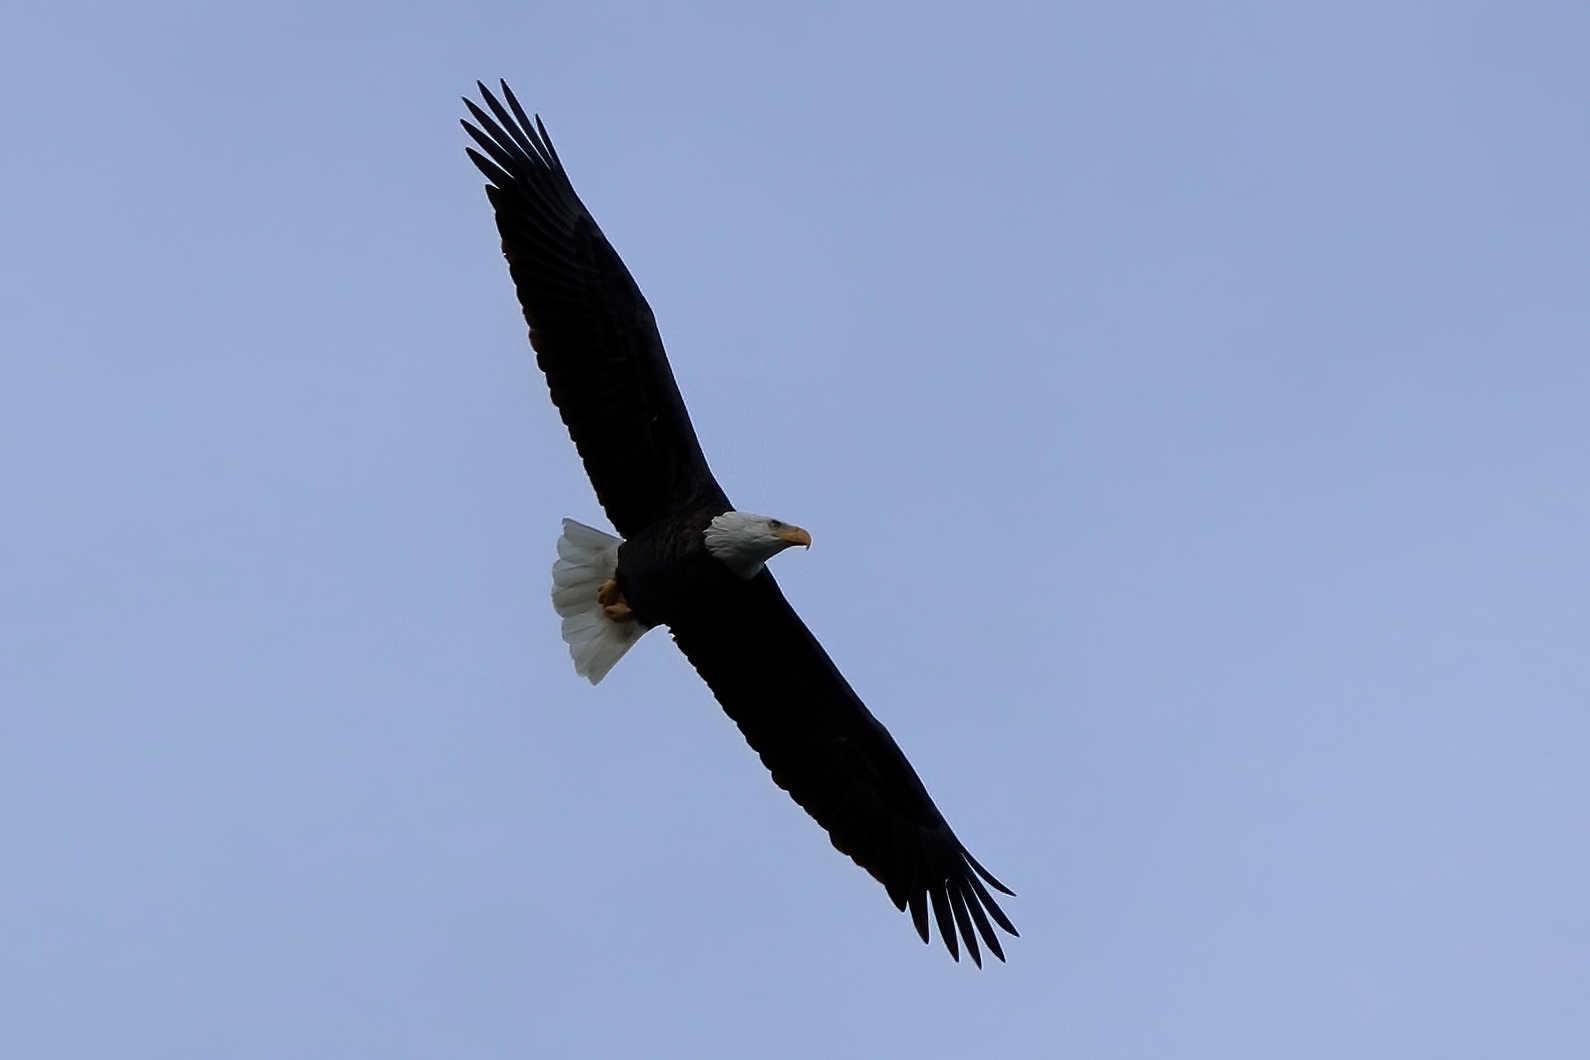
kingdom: Animalia
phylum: Chordata
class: Aves
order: Accipitriformes
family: Accipitridae
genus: Haliaeetus
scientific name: Haliaeetus leucocephalus
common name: Bald eagle
